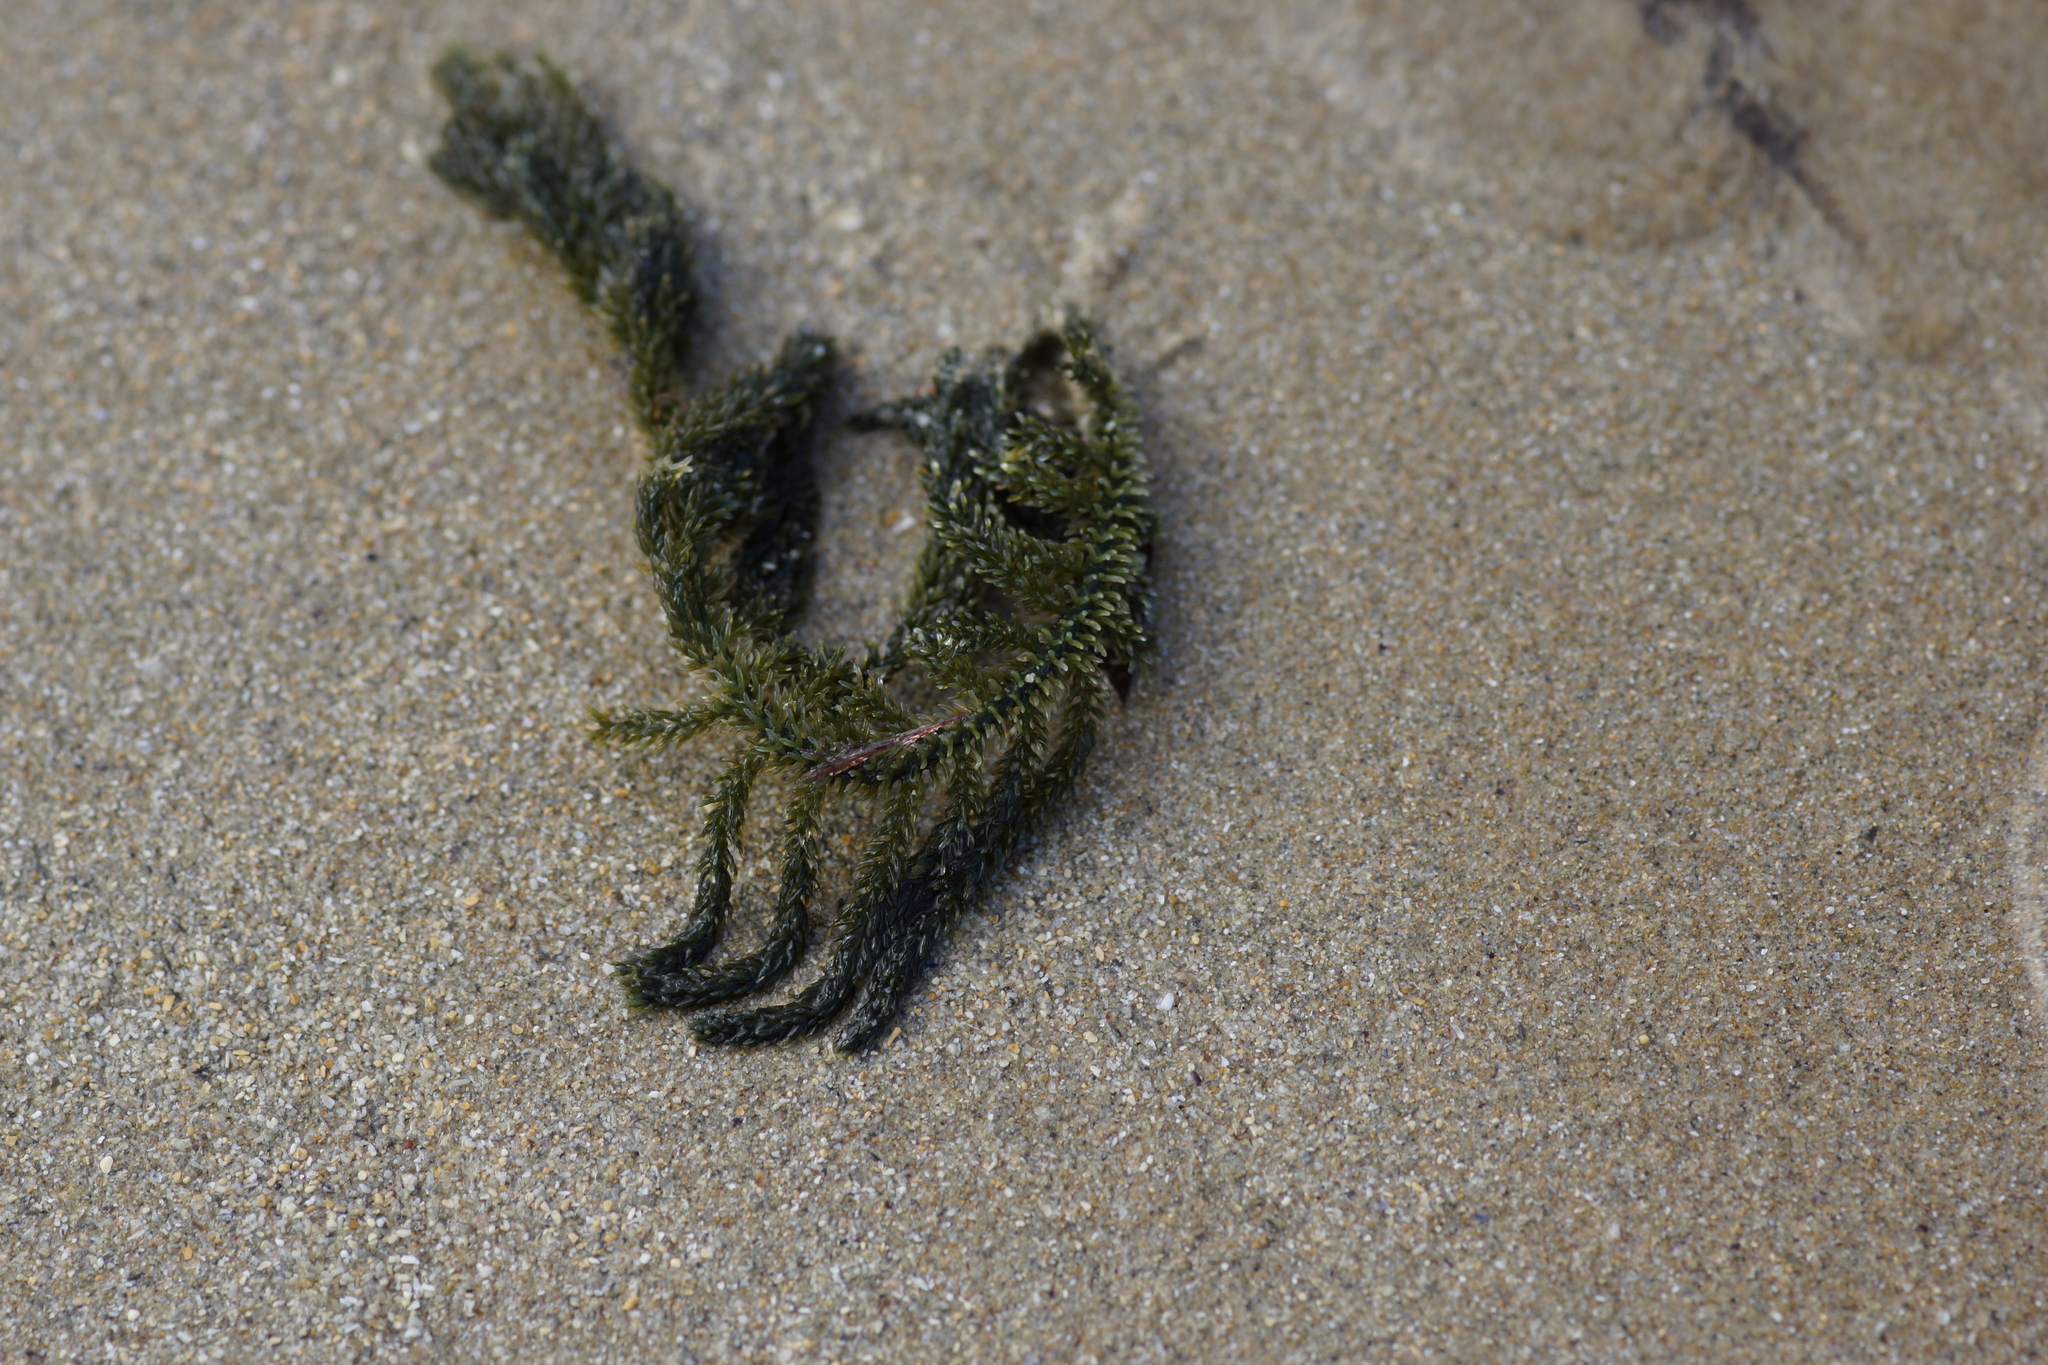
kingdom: Plantae
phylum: Chlorophyta
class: Ulvophyceae
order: Bryopsidales
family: Caulerpaceae
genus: Caulerpa
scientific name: Caulerpa flexilis
